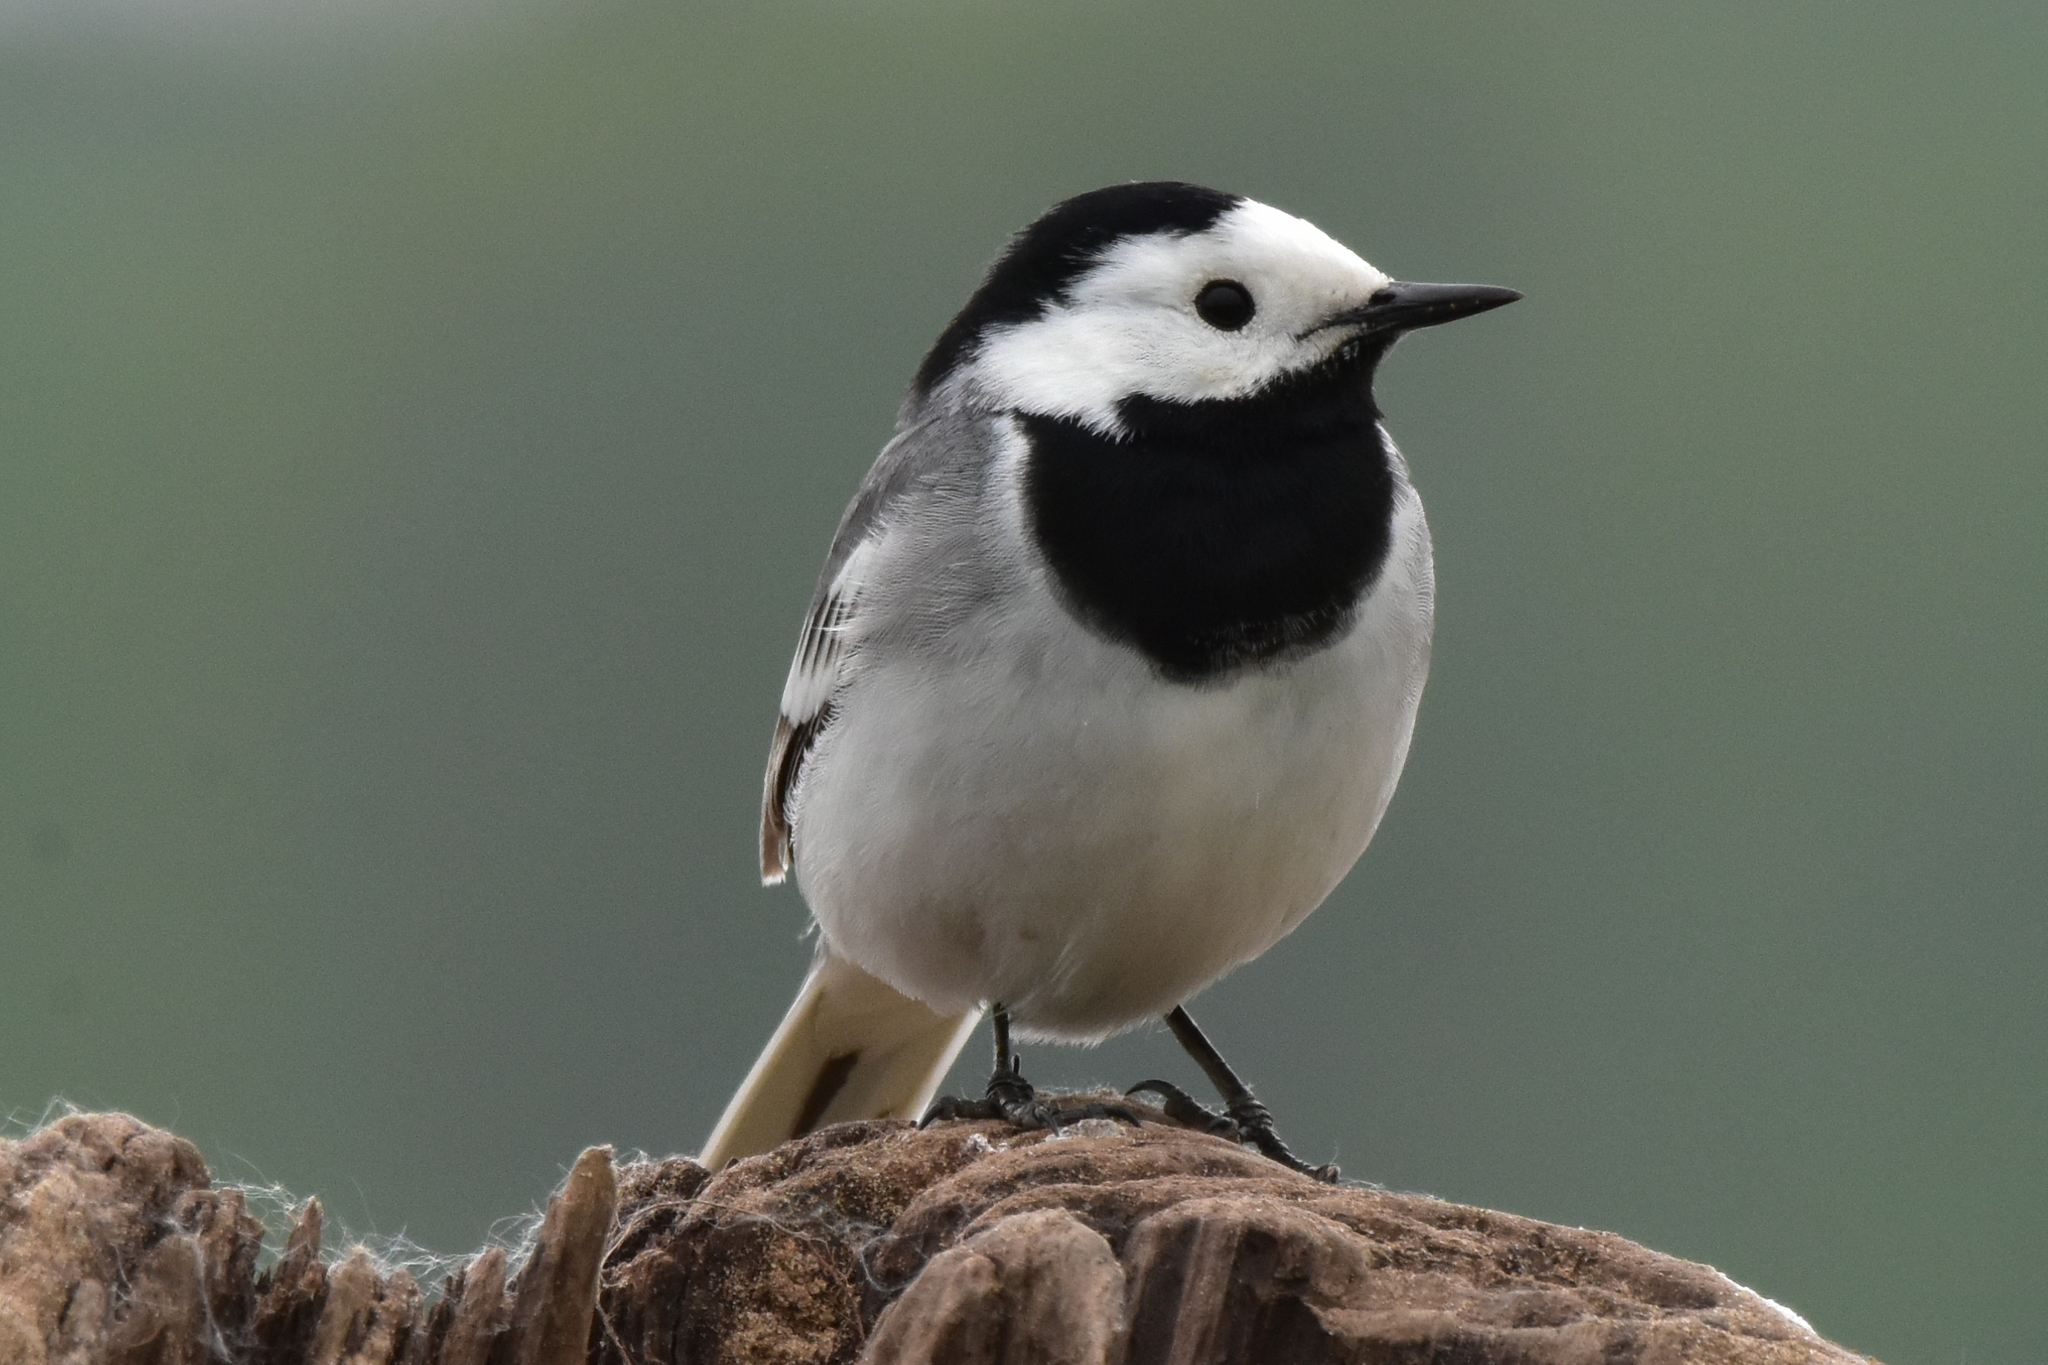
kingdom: Animalia
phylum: Chordata
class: Aves
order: Passeriformes
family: Motacillidae
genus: Motacilla
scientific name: Motacilla alba
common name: White wagtail
